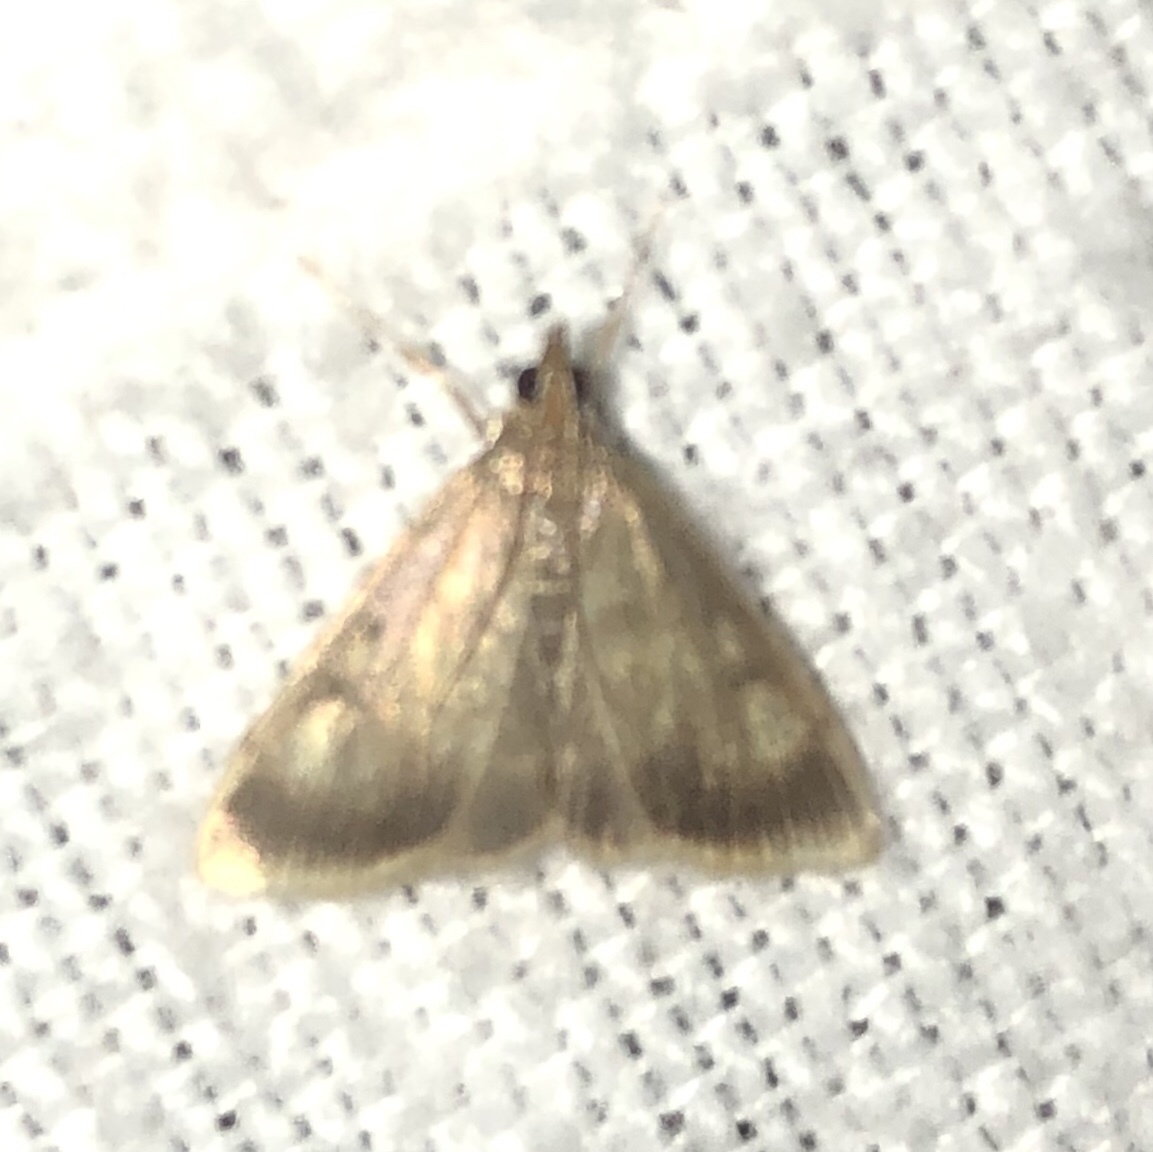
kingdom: Animalia
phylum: Arthropoda
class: Insecta
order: Lepidoptera
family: Crambidae
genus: Pyrausta
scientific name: Pyrausta acrionalis
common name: Mint-loving pyrausta moth
